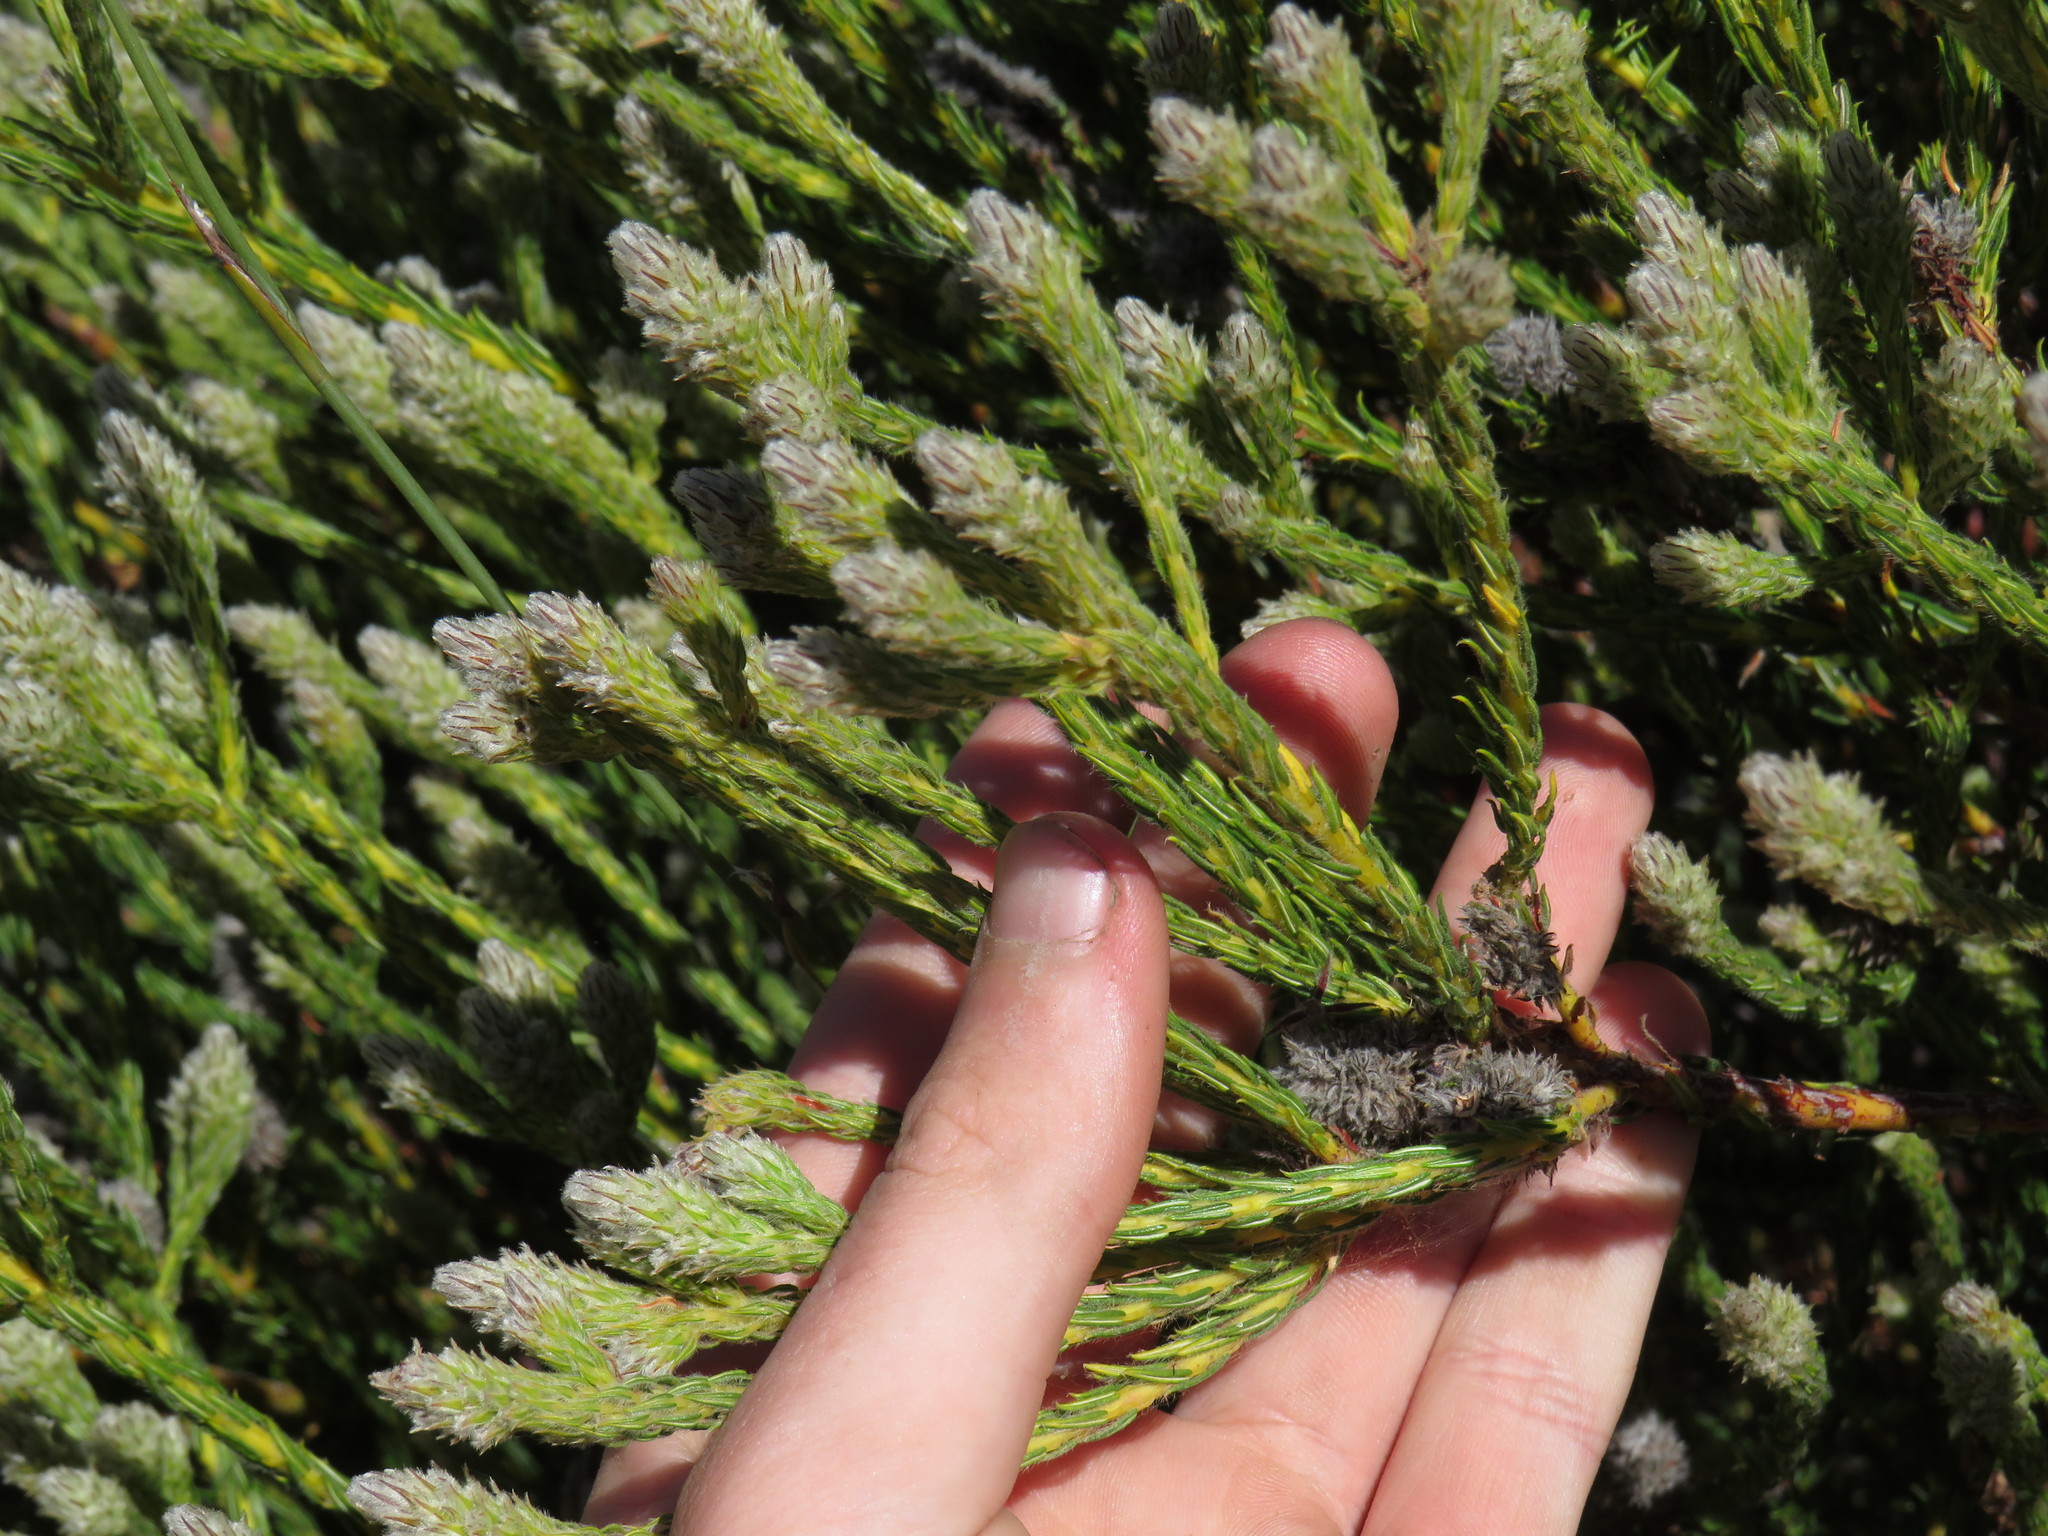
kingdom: Plantae
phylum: Tracheophyta
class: Magnoliopsida
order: Rosales
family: Rhamnaceae
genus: Phylica
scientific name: Phylica cylindrica
